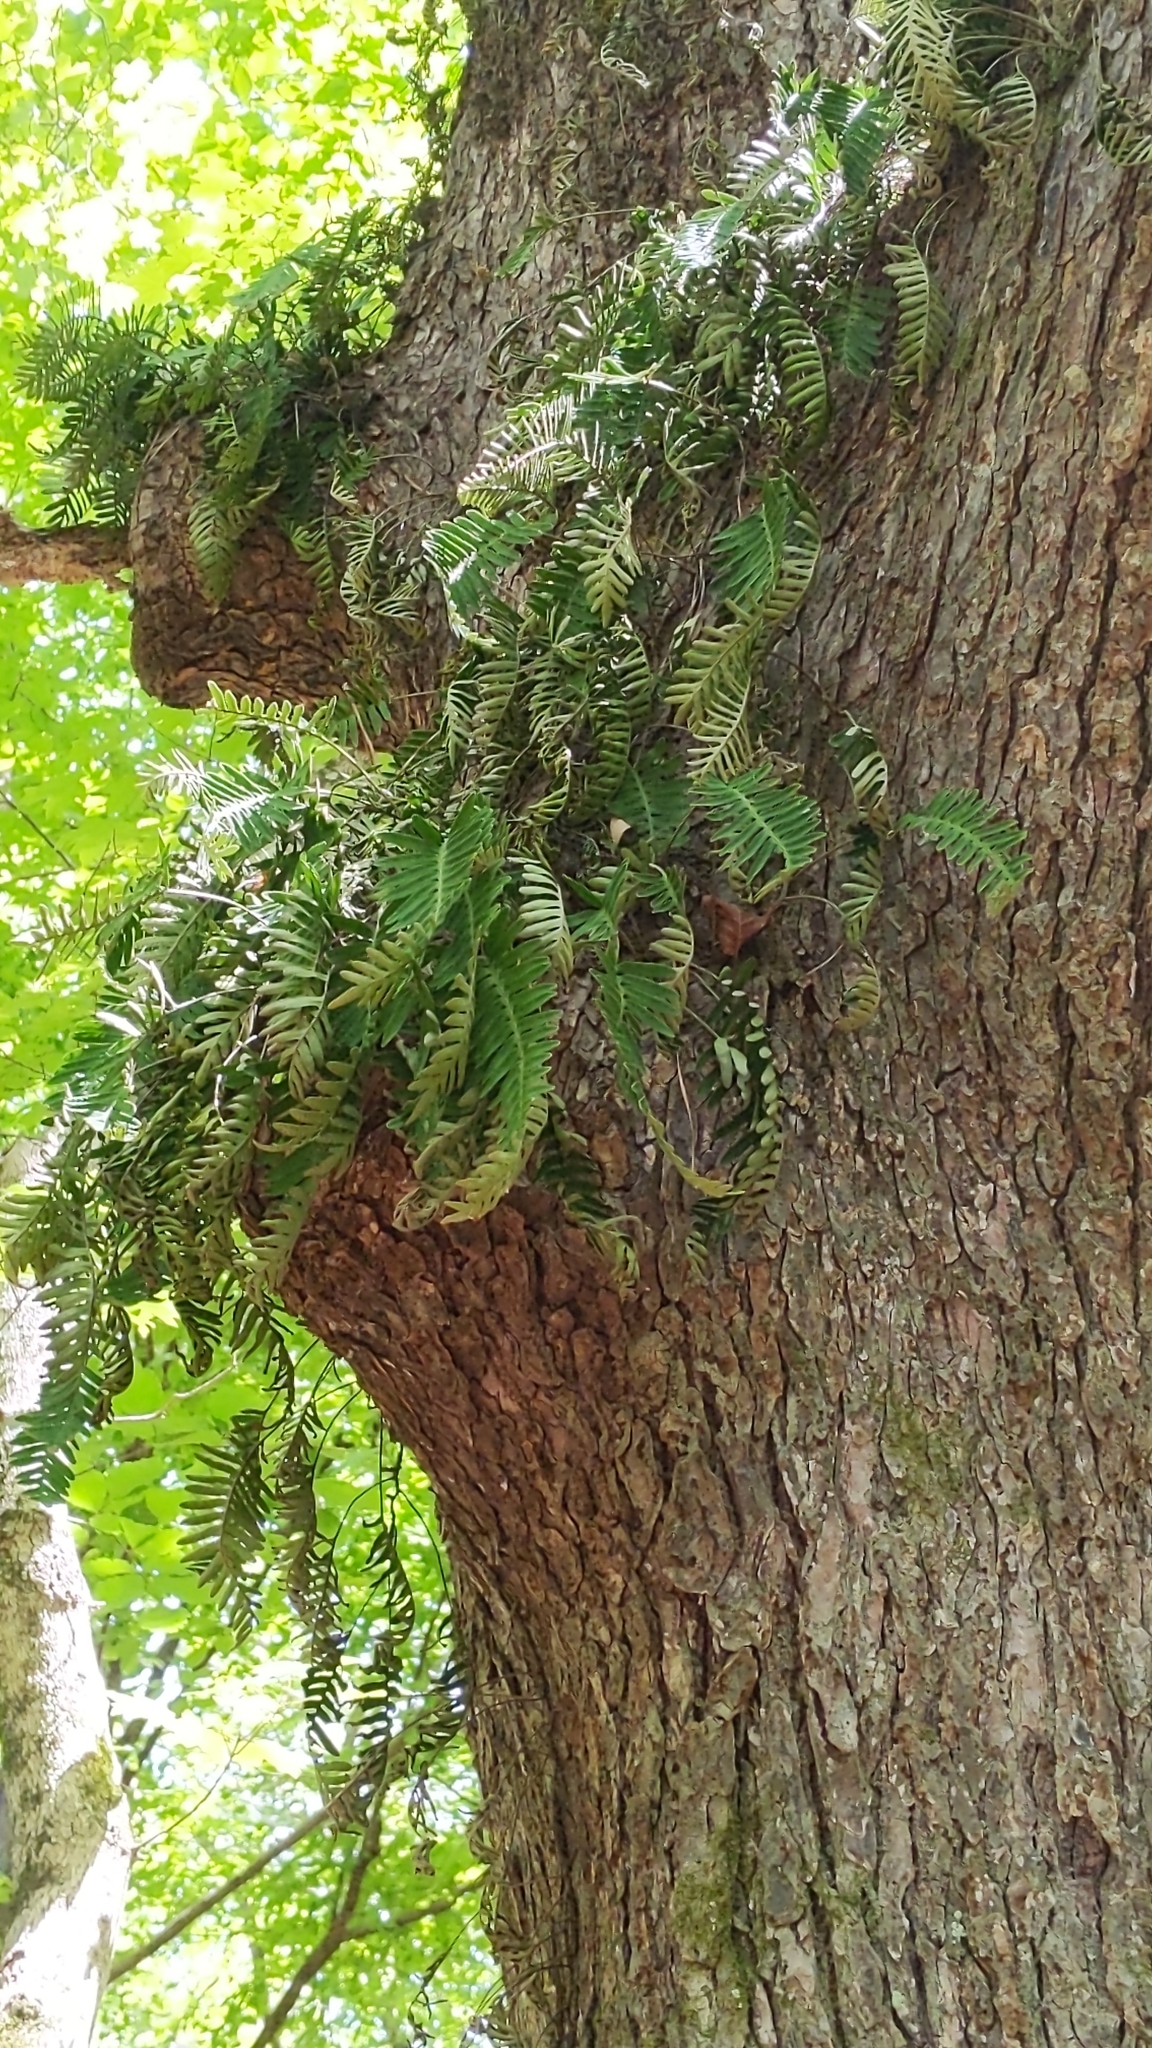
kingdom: Plantae
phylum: Tracheophyta
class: Polypodiopsida
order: Polypodiales
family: Polypodiaceae
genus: Pleopeltis
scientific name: Pleopeltis michauxiana
